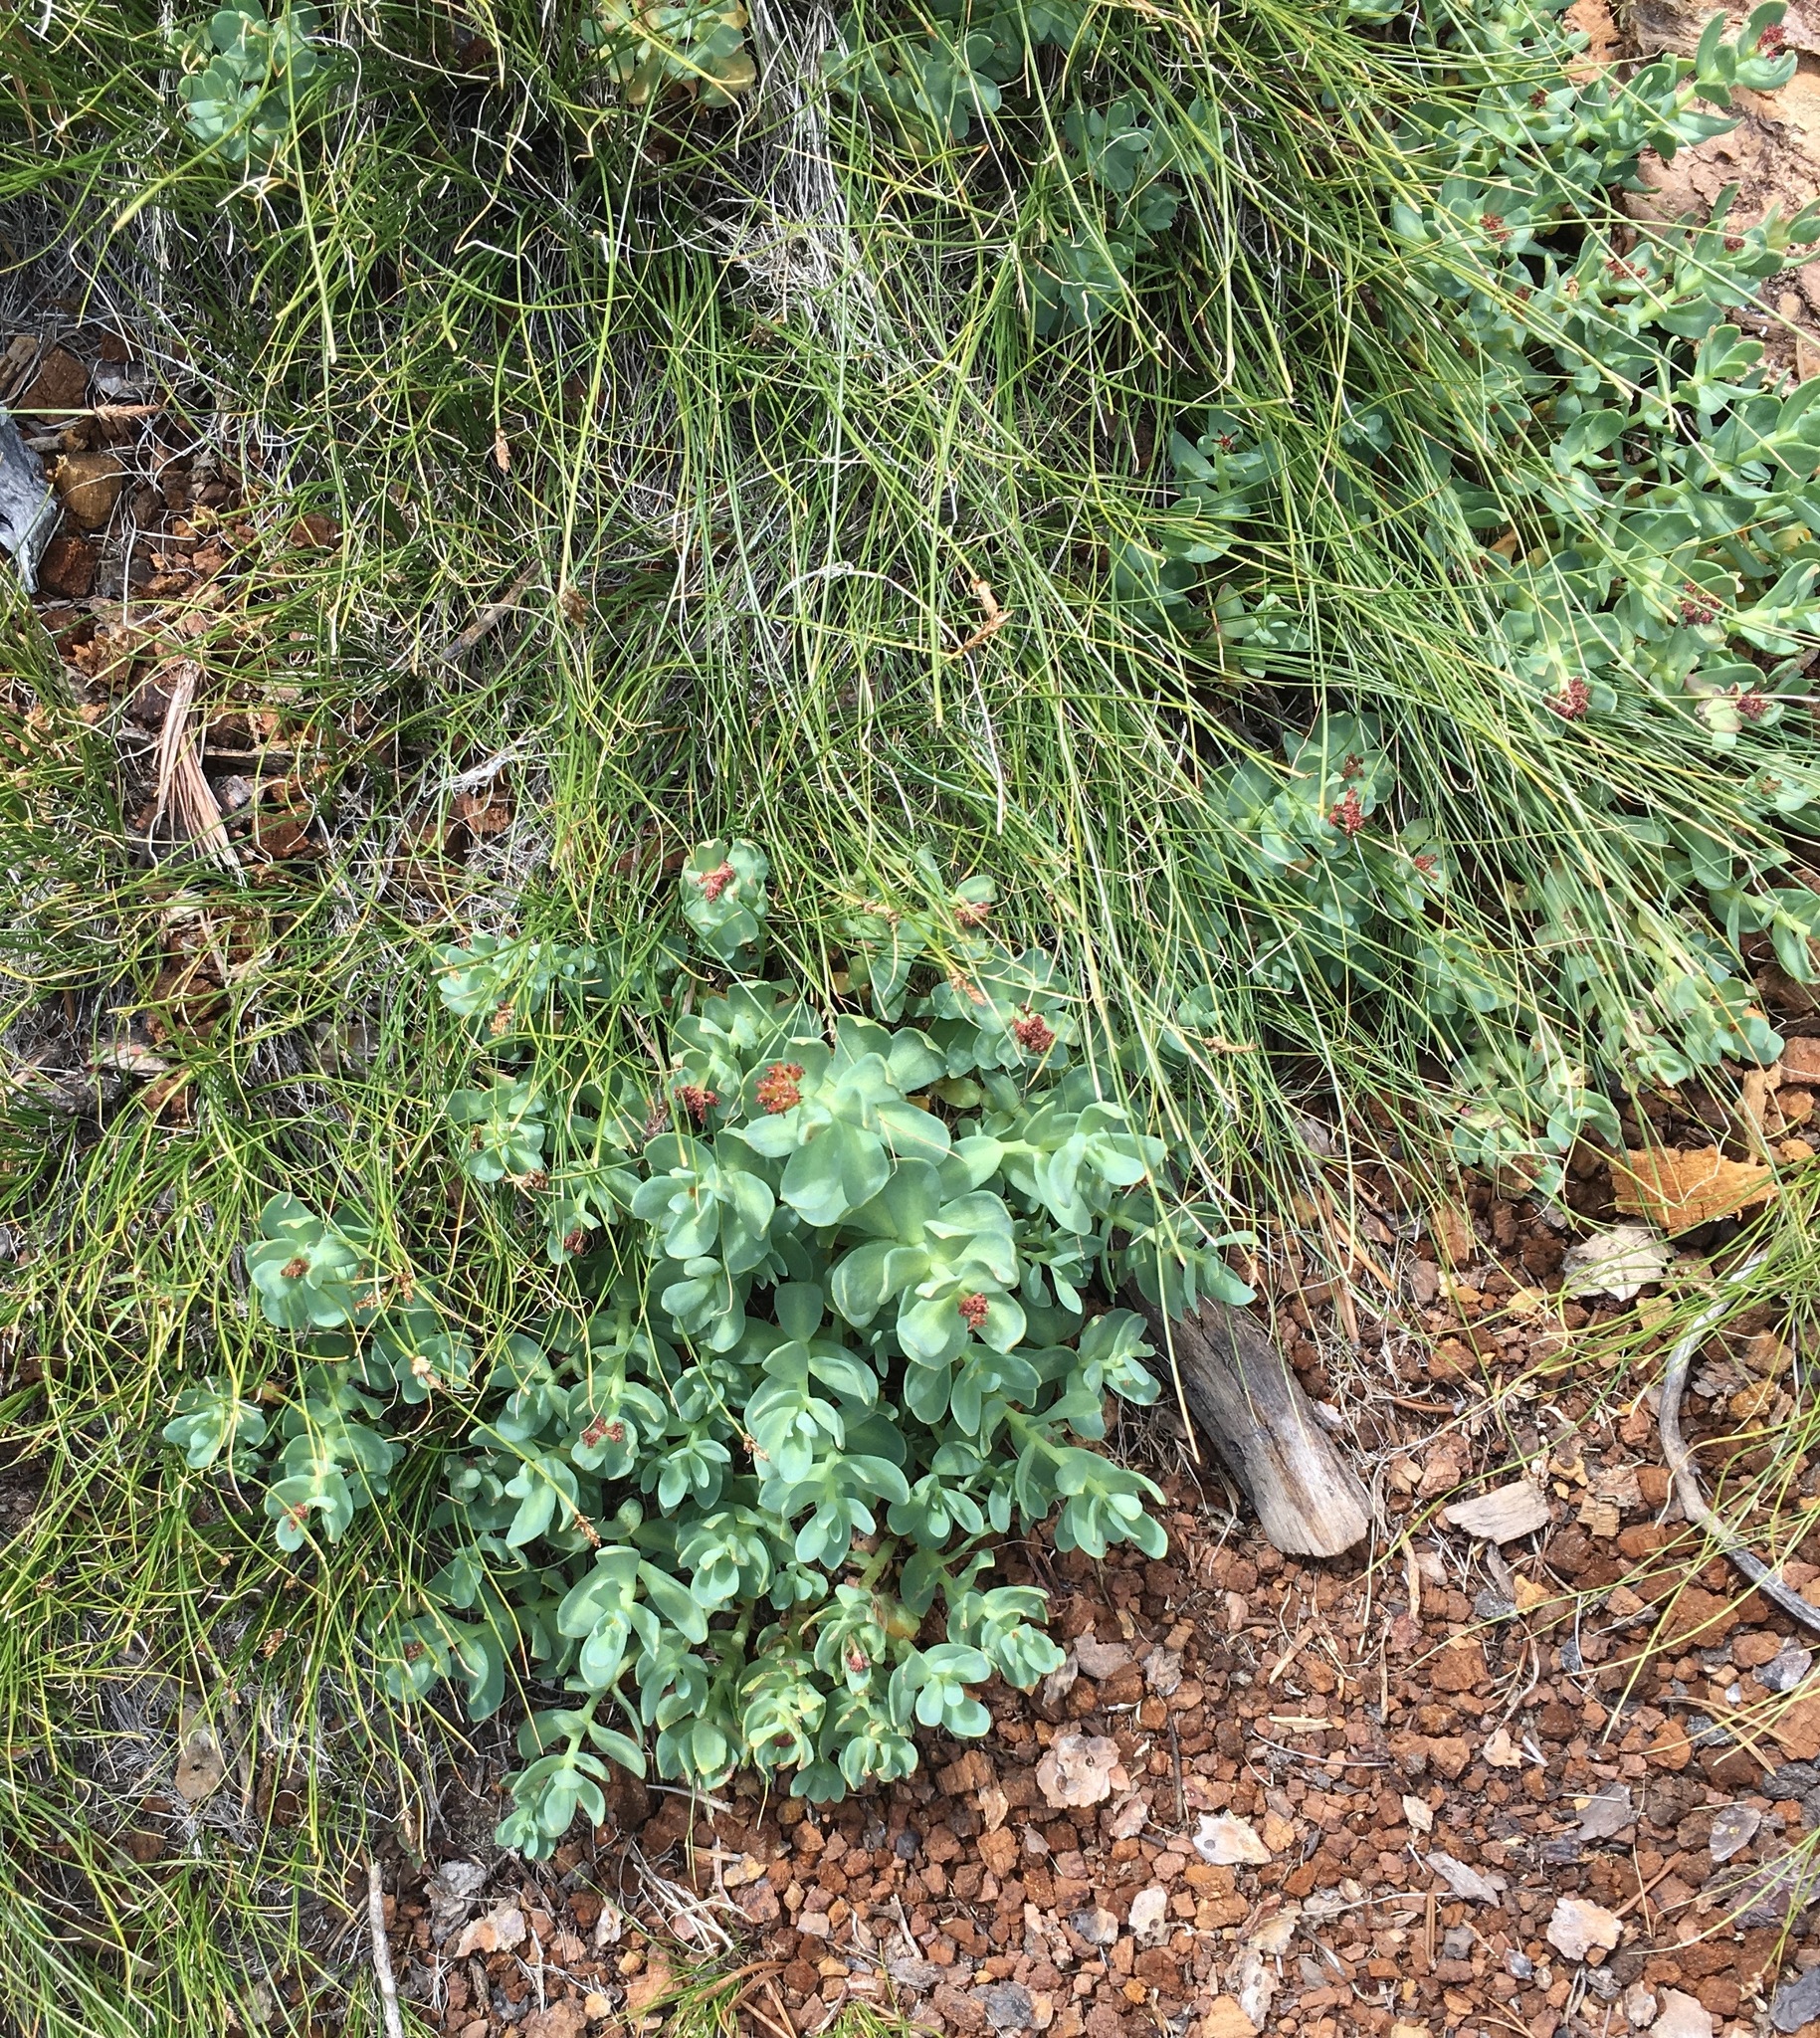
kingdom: Plantae
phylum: Tracheophyta
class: Magnoliopsida
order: Saxifragales
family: Crassulaceae
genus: Rhodiola
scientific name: Rhodiola integrifolia
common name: Western roseroot
